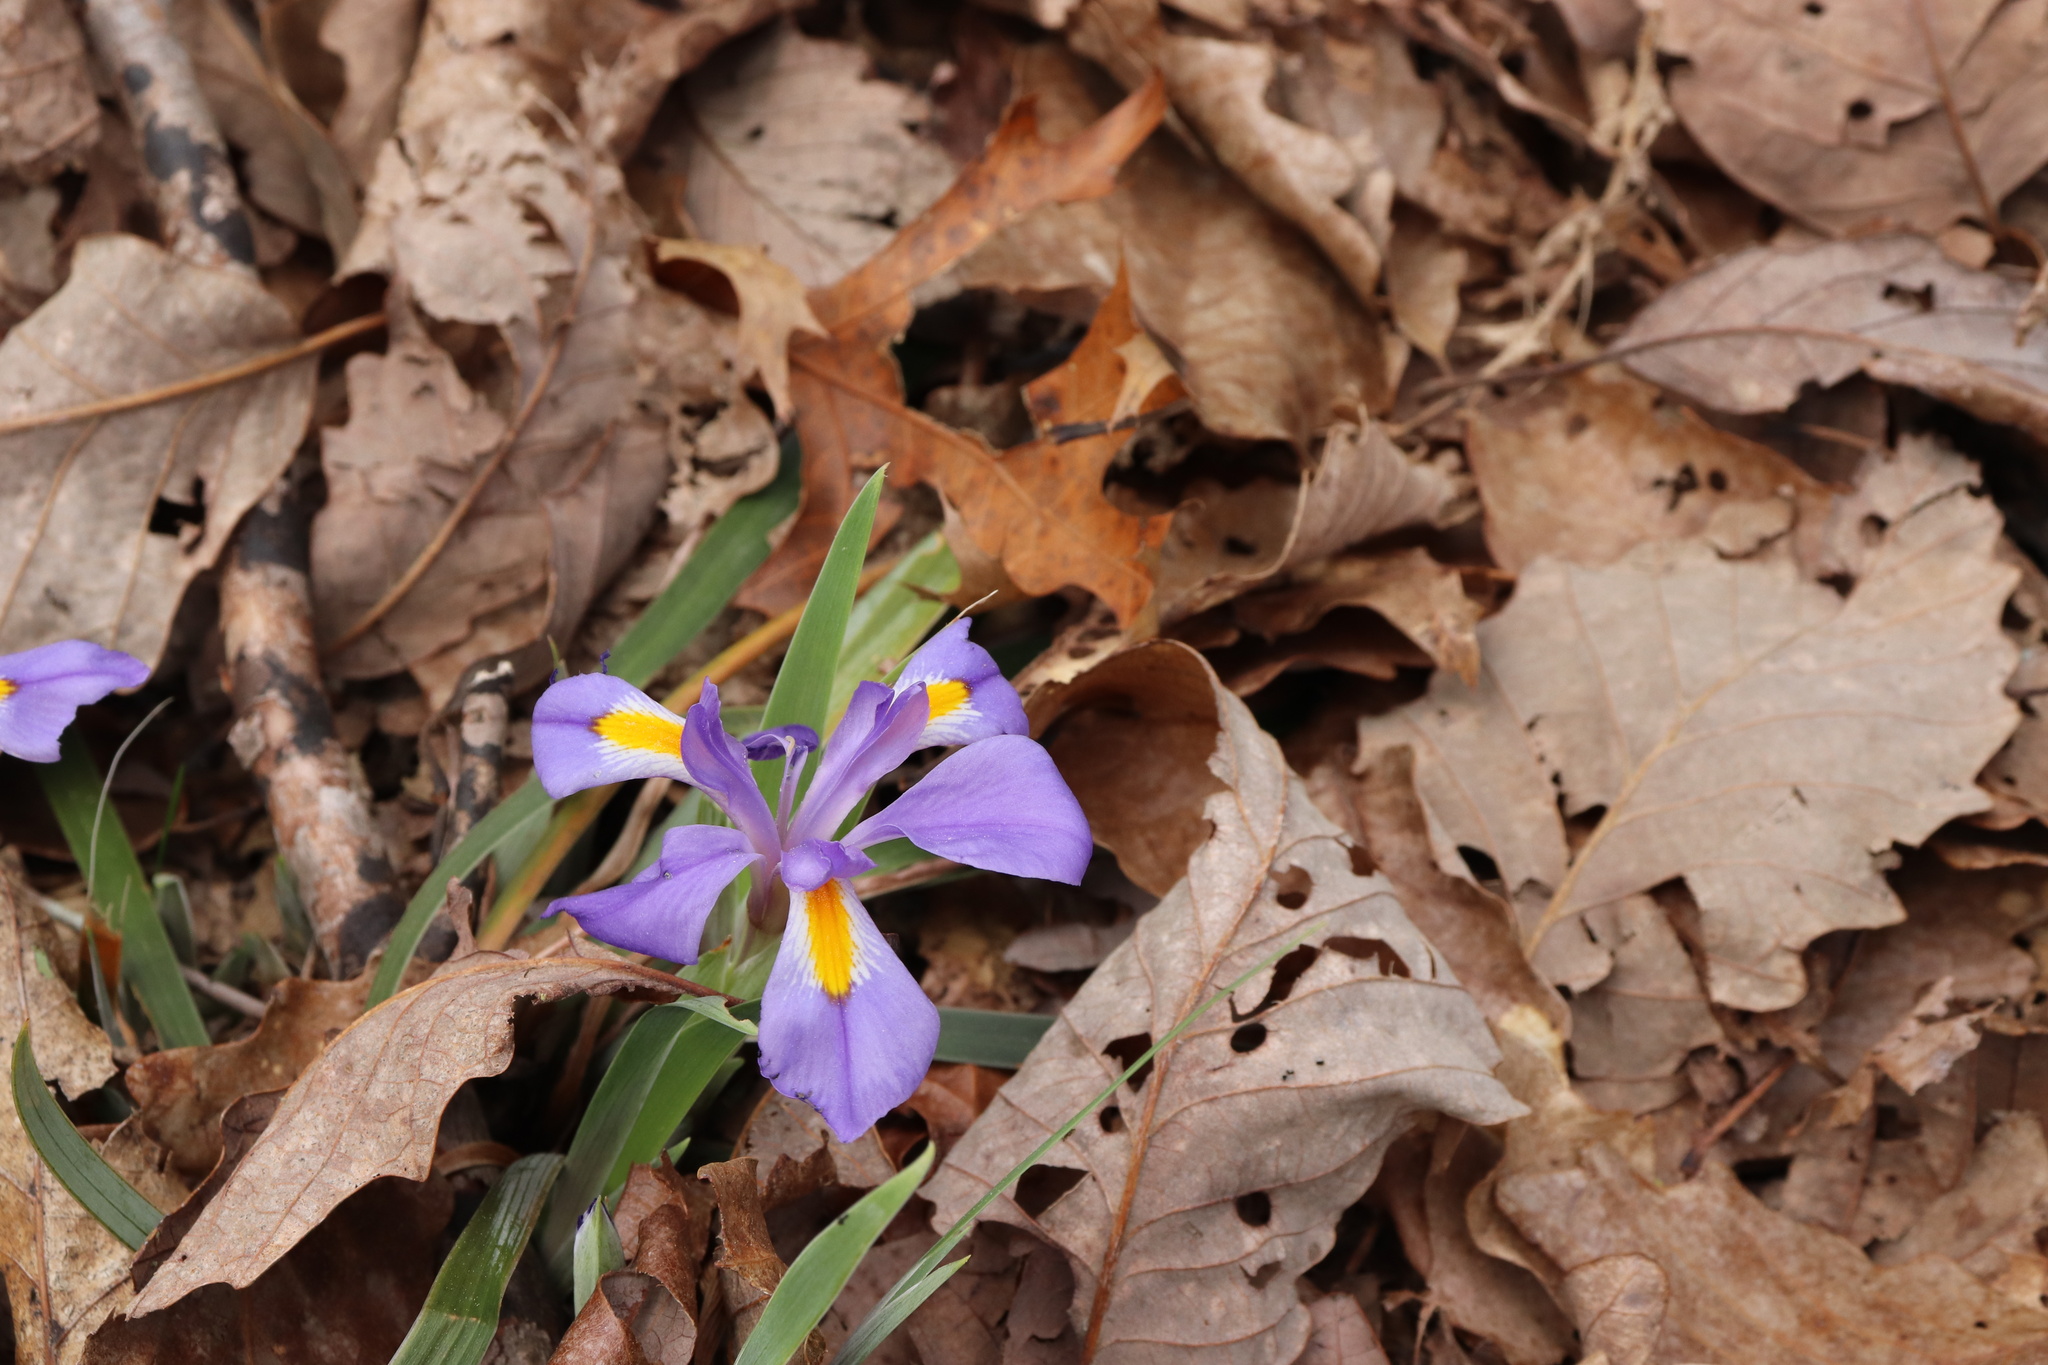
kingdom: Plantae
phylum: Tracheophyta
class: Liliopsida
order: Asparagales
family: Iridaceae
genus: Iris
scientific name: Iris verna
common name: Dwarf iris
